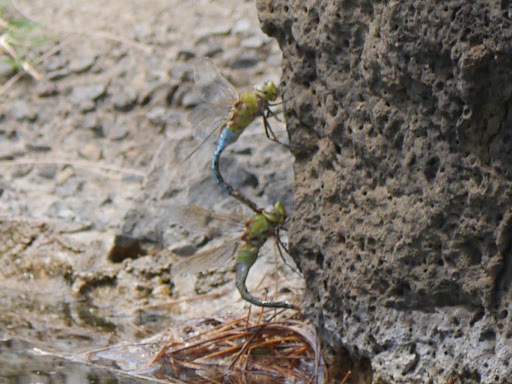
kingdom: Animalia
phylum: Arthropoda
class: Insecta
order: Odonata
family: Aeshnidae
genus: Anax
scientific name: Anax junius
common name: Common green darner
